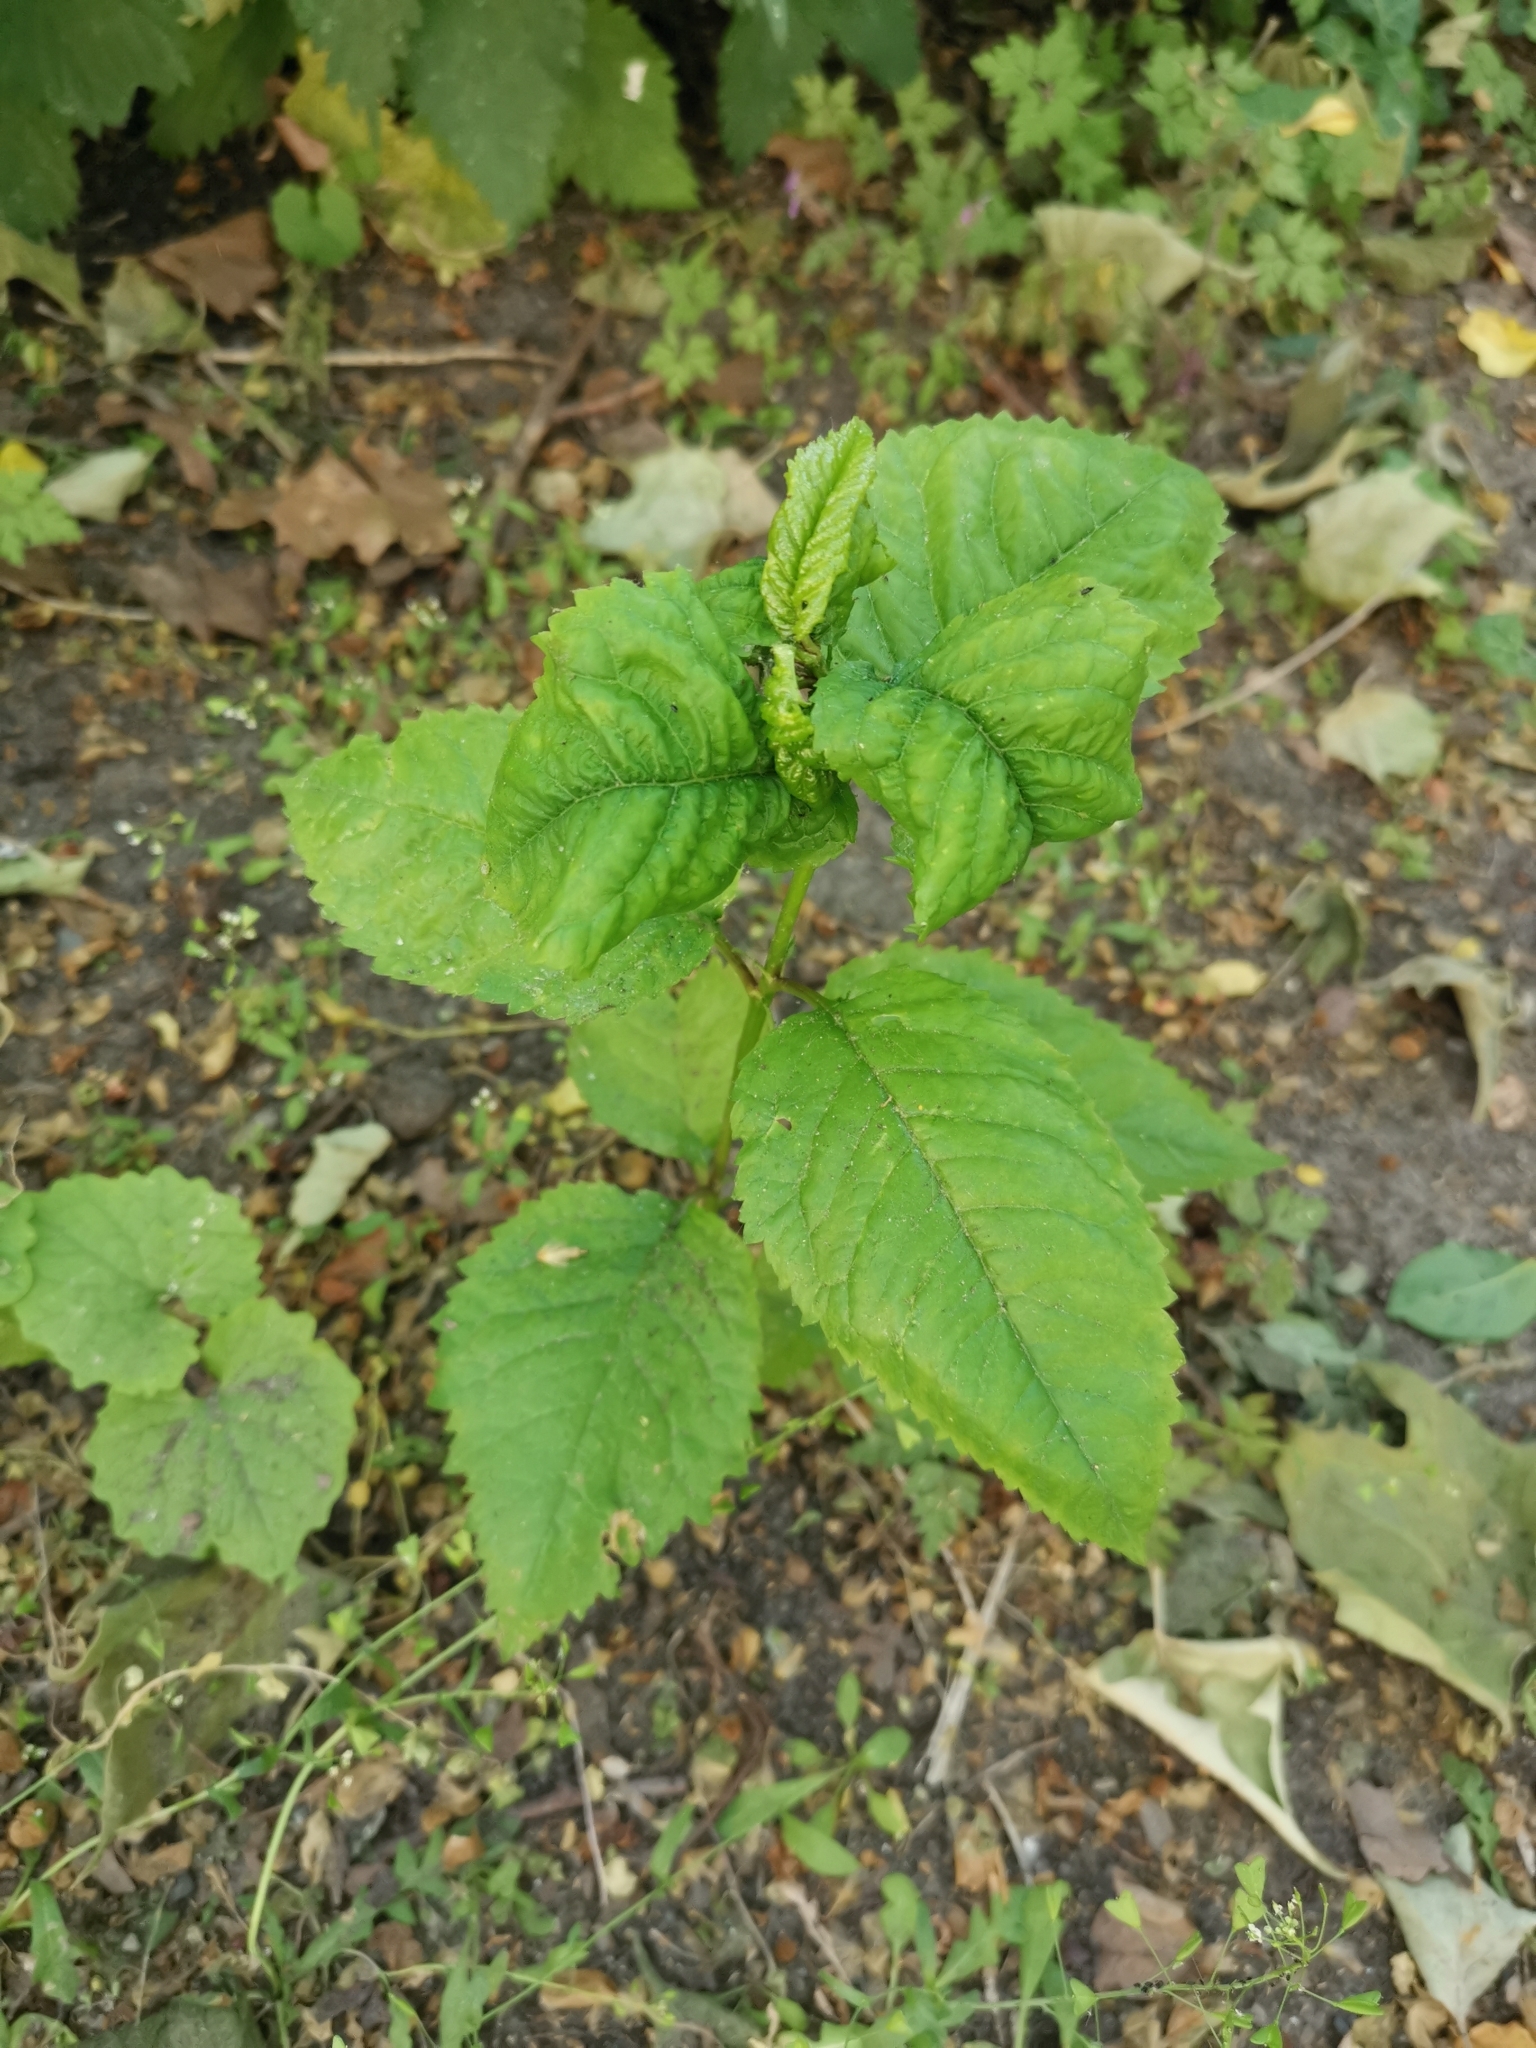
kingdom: Plantae
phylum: Tracheophyta
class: Magnoliopsida
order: Rosales
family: Rosaceae
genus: Prunus
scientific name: Prunus avium
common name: Sweet cherry
